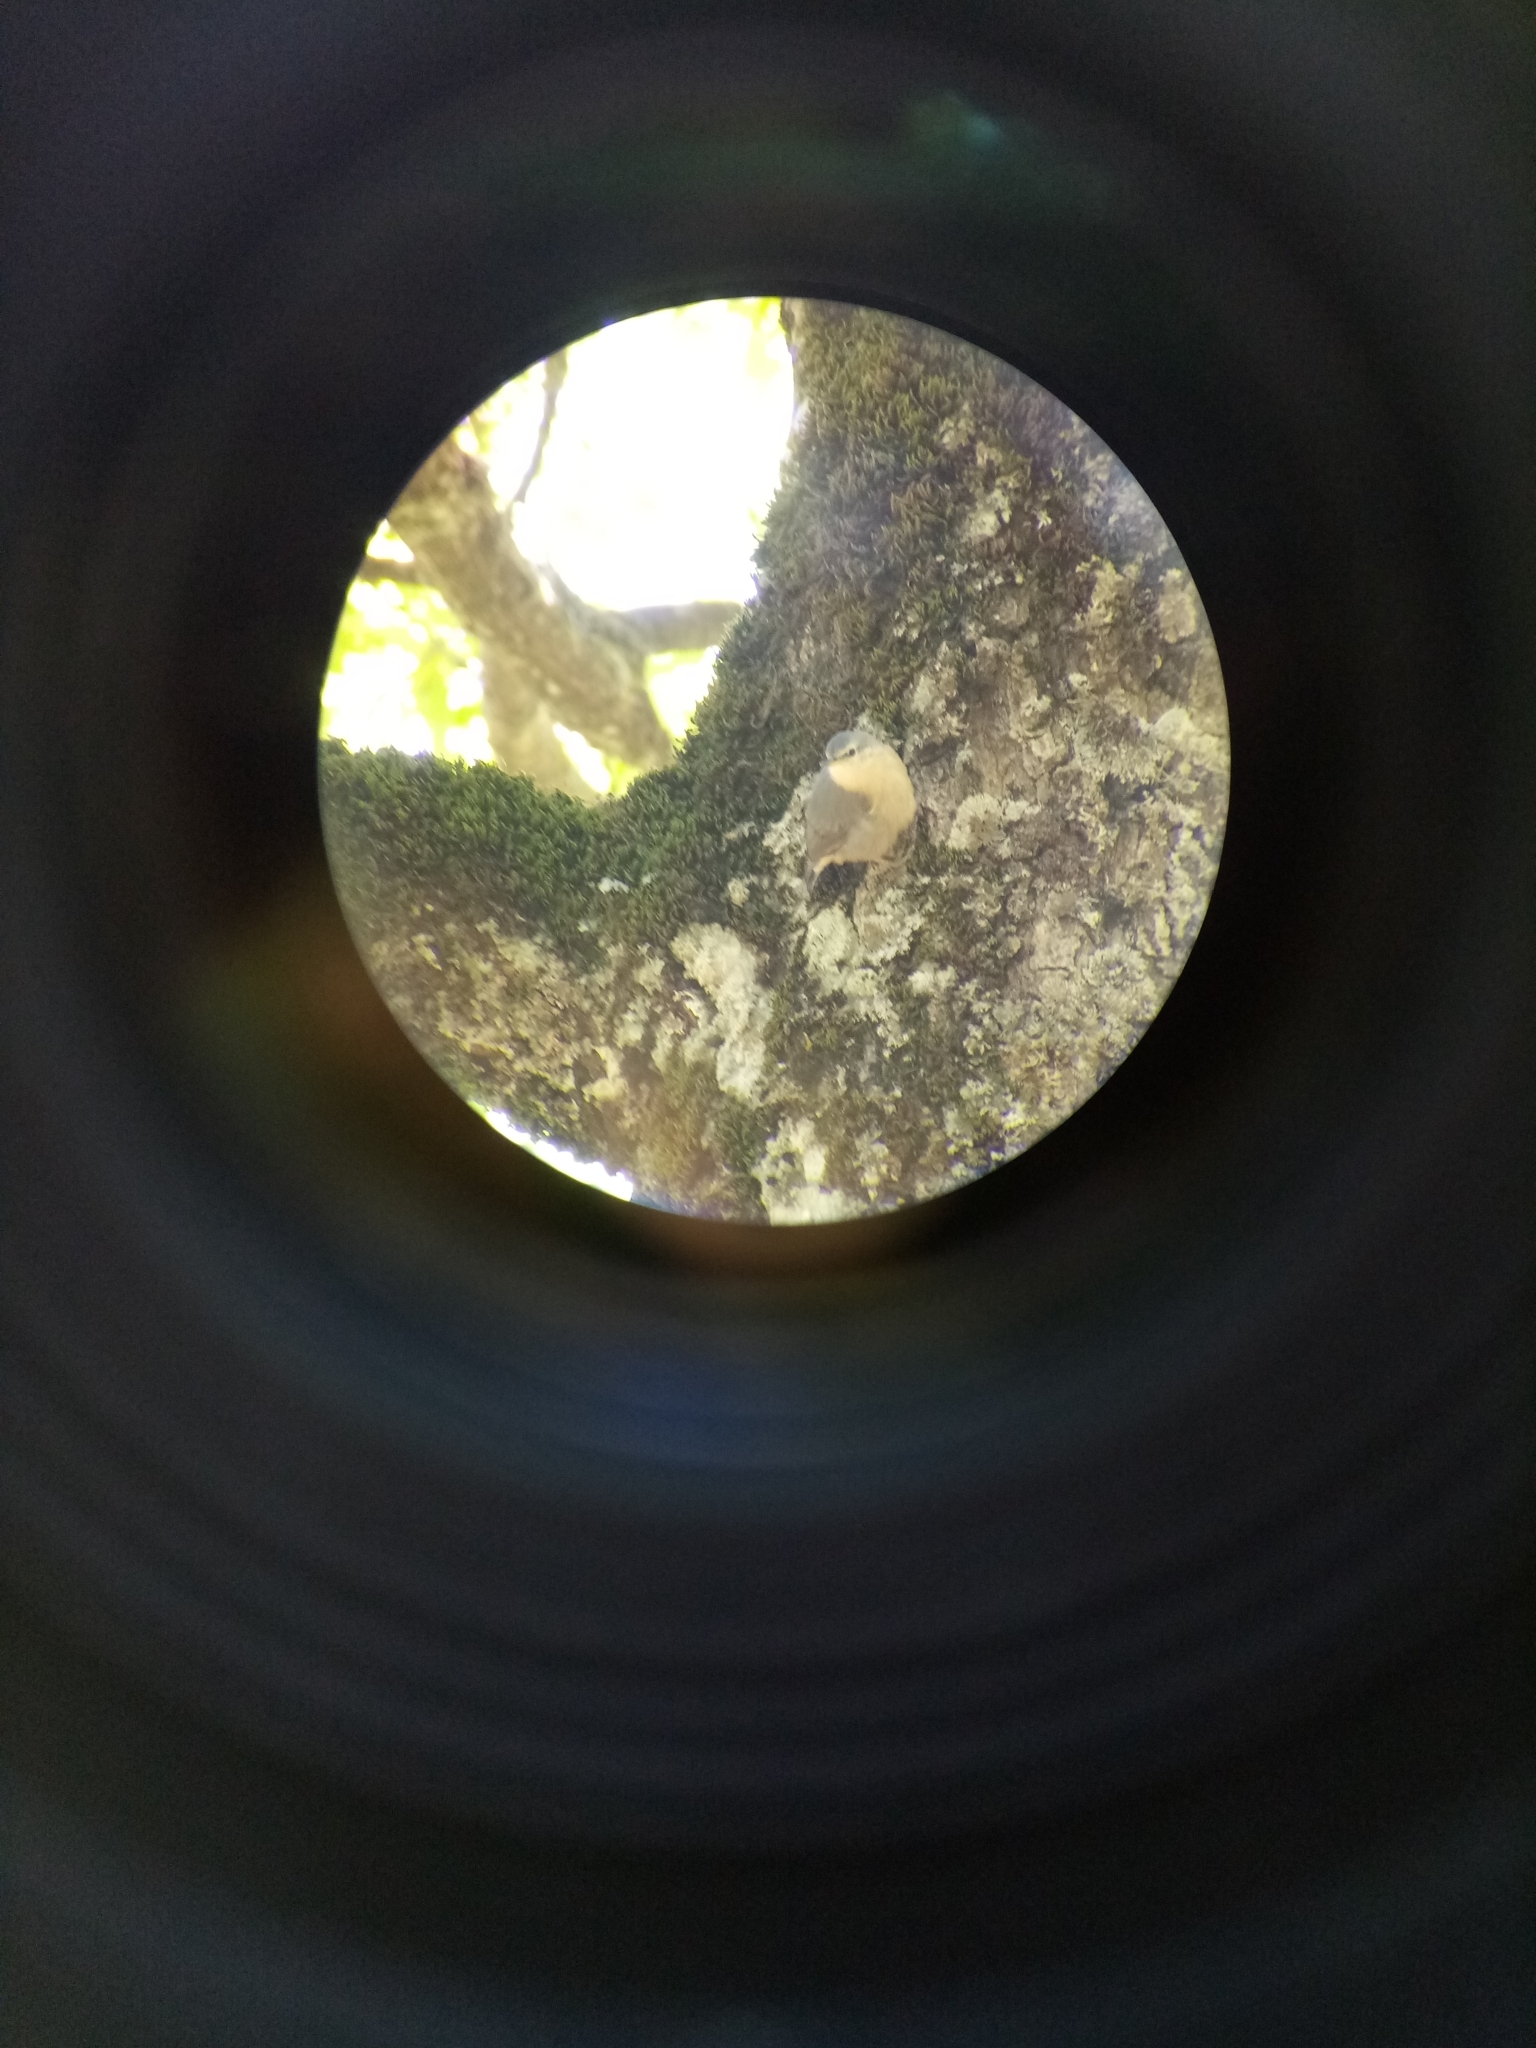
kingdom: Animalia
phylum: Chordata
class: Aves
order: Passeriformes
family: Sittidae
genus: Sitta
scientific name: Sitta ledanti
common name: Algerian nuthatch
